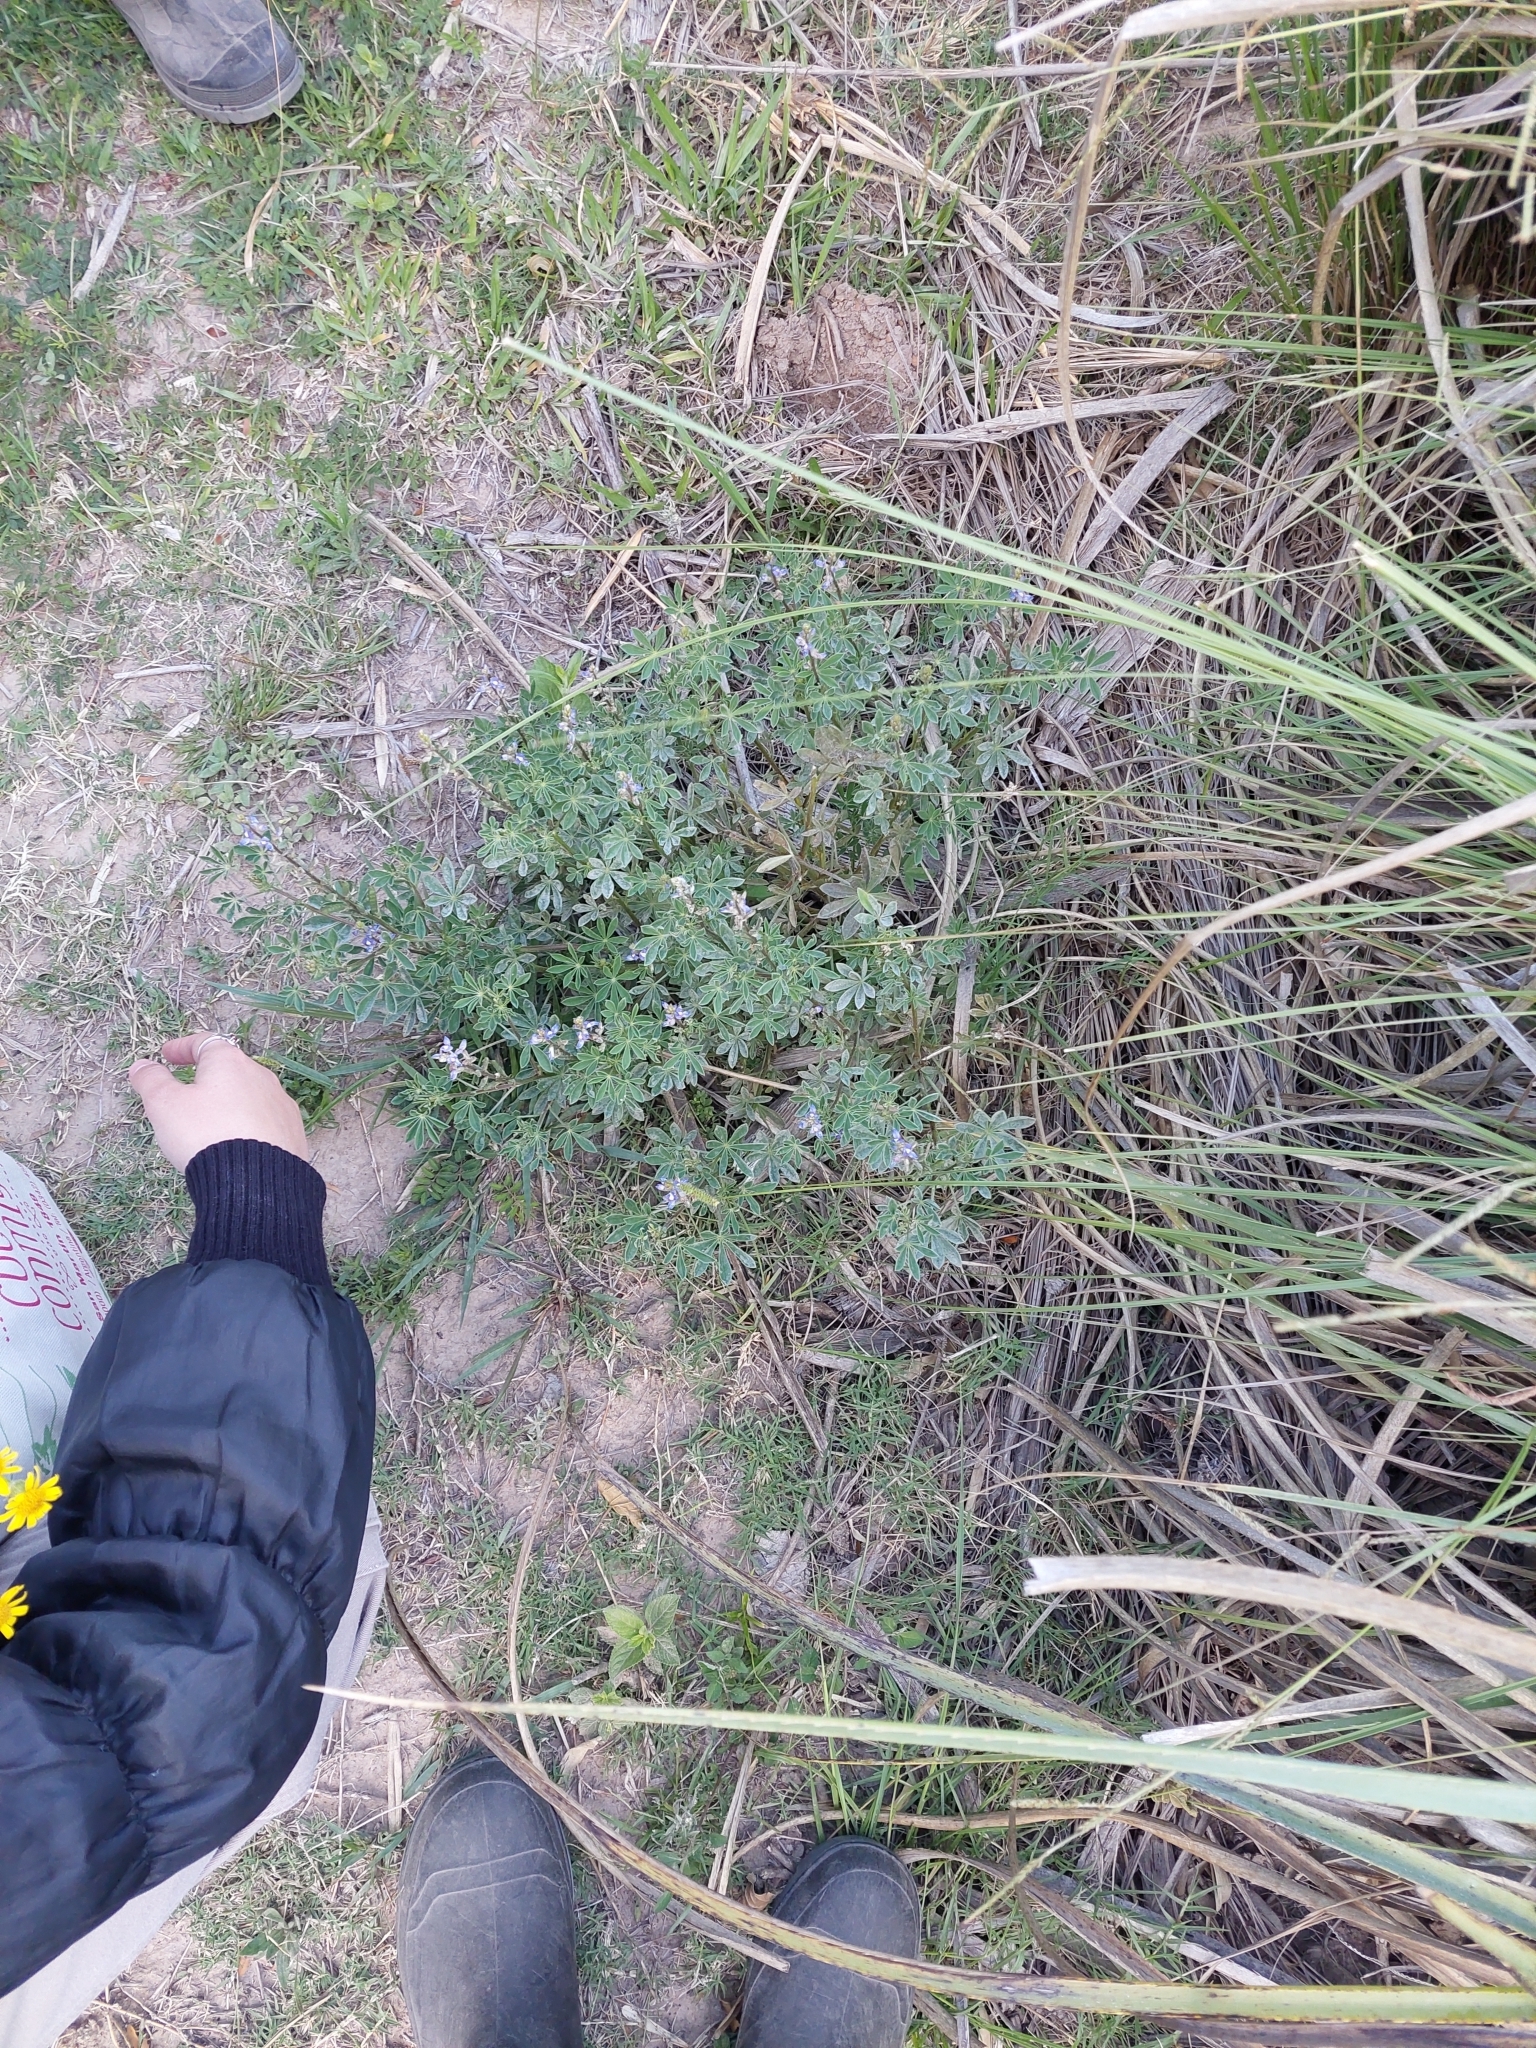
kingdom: Plantae
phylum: Tracheophyta
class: Magnoliopsida
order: Fabales
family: Fabaceae
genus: Lupinus
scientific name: Lupinus gibertianus
